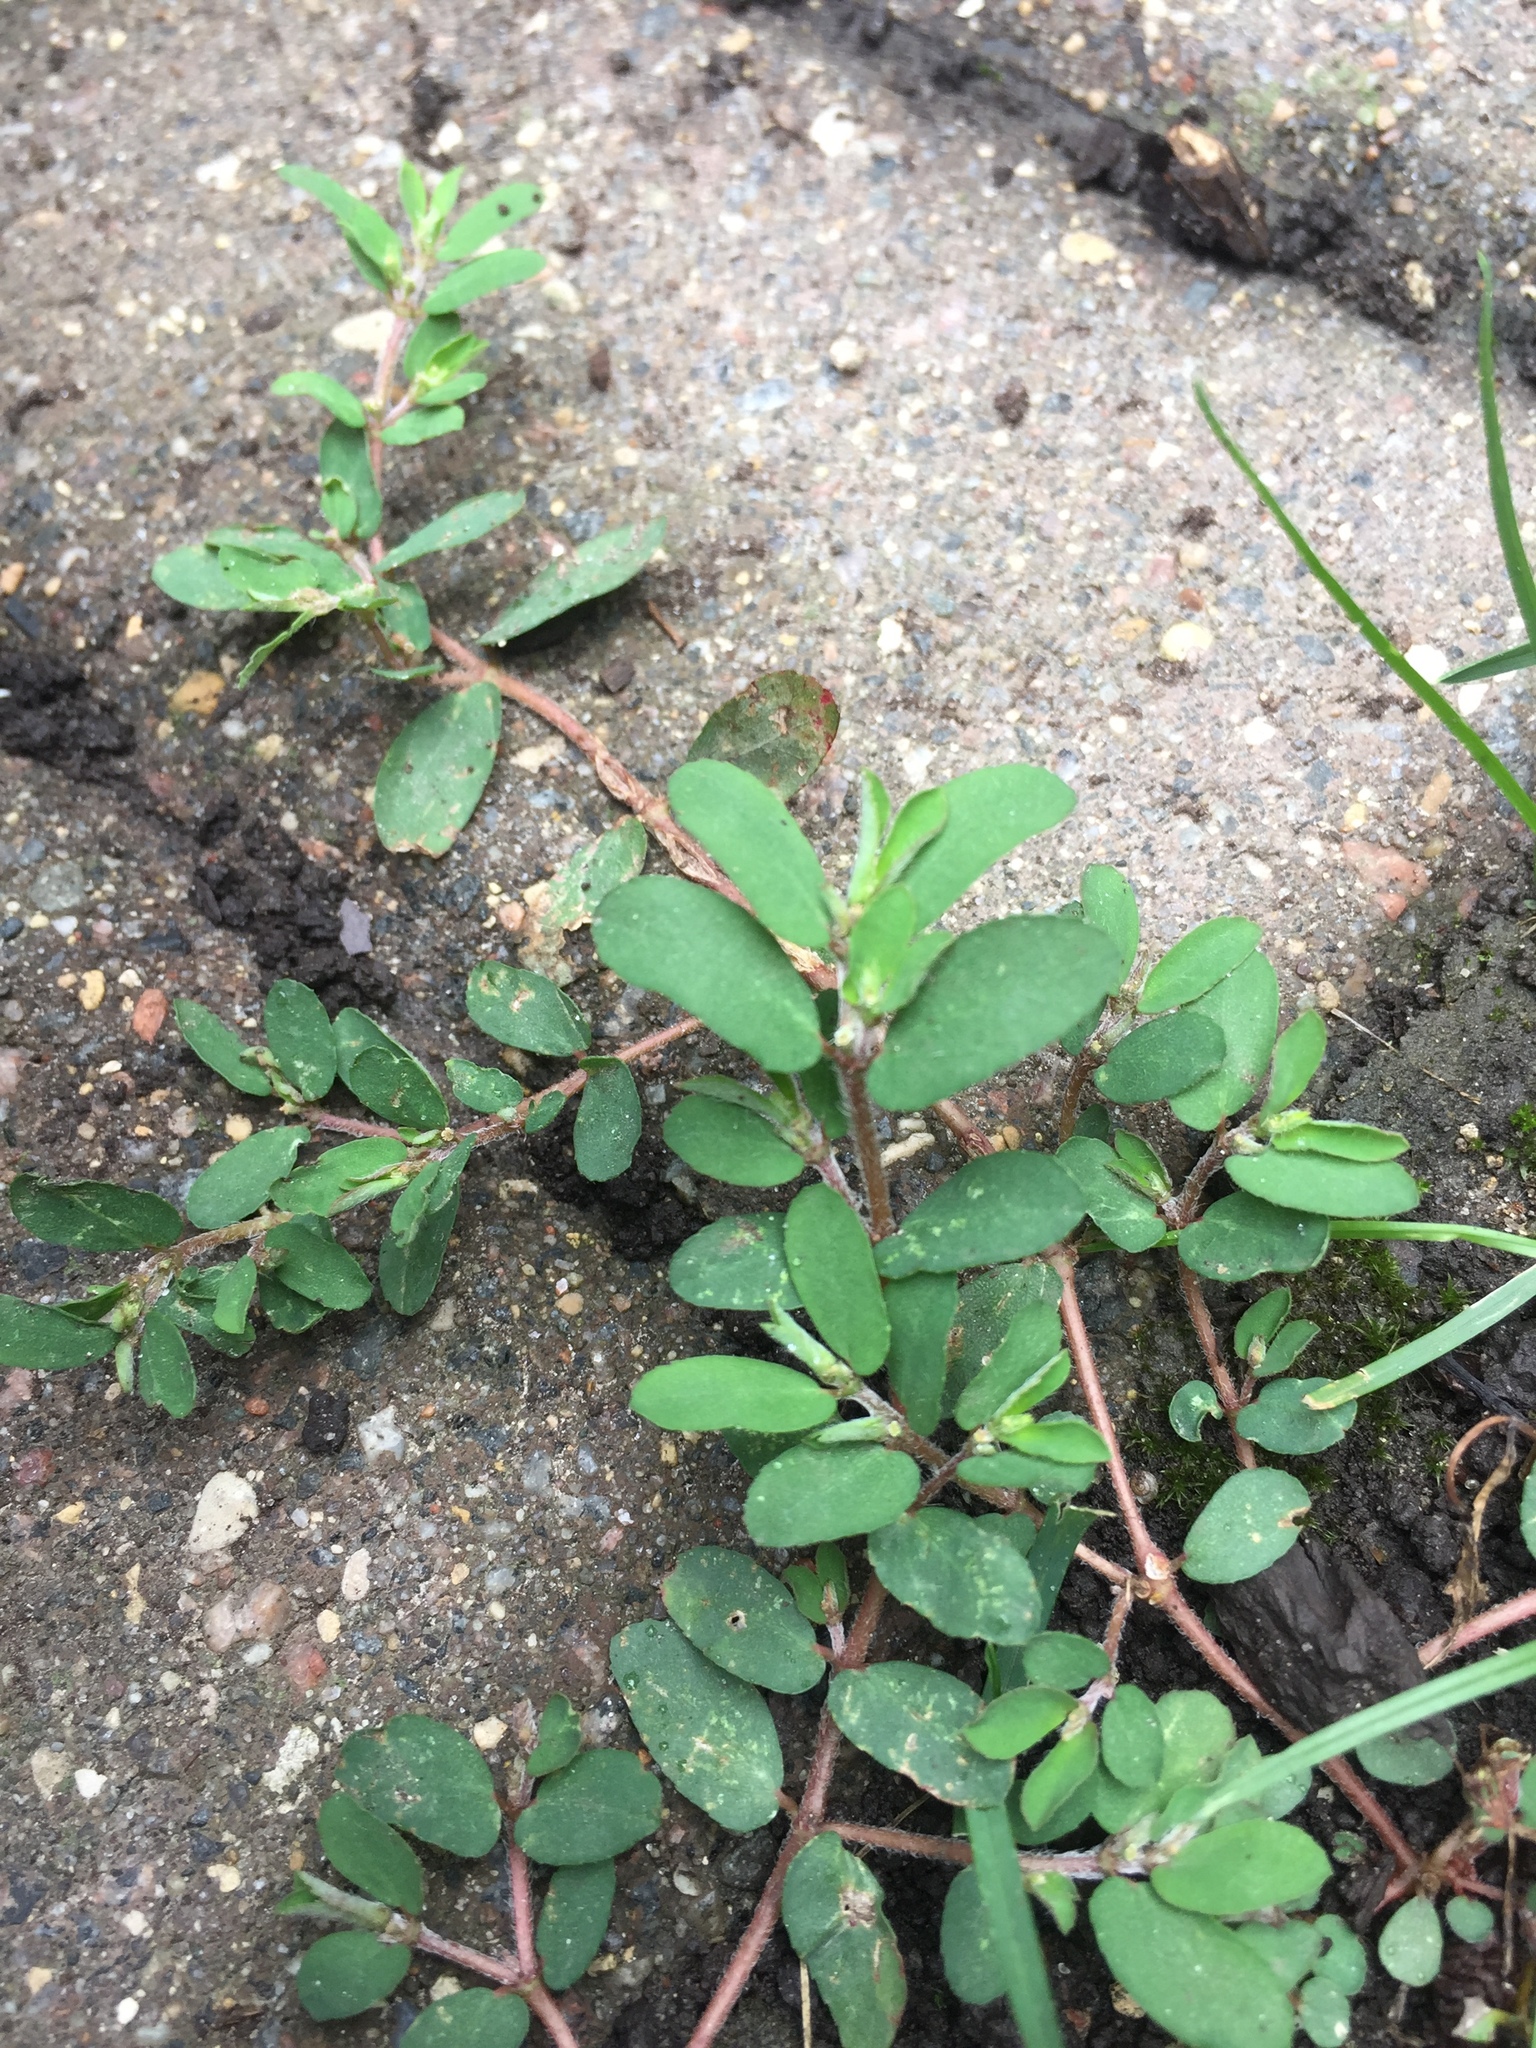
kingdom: Plantae
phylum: Tracheophyta
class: Magnoliopsida
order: Malpighiales
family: Euphorbiaceae
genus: Euphorbia
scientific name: Euphorbia maculata
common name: Spotted spurge
